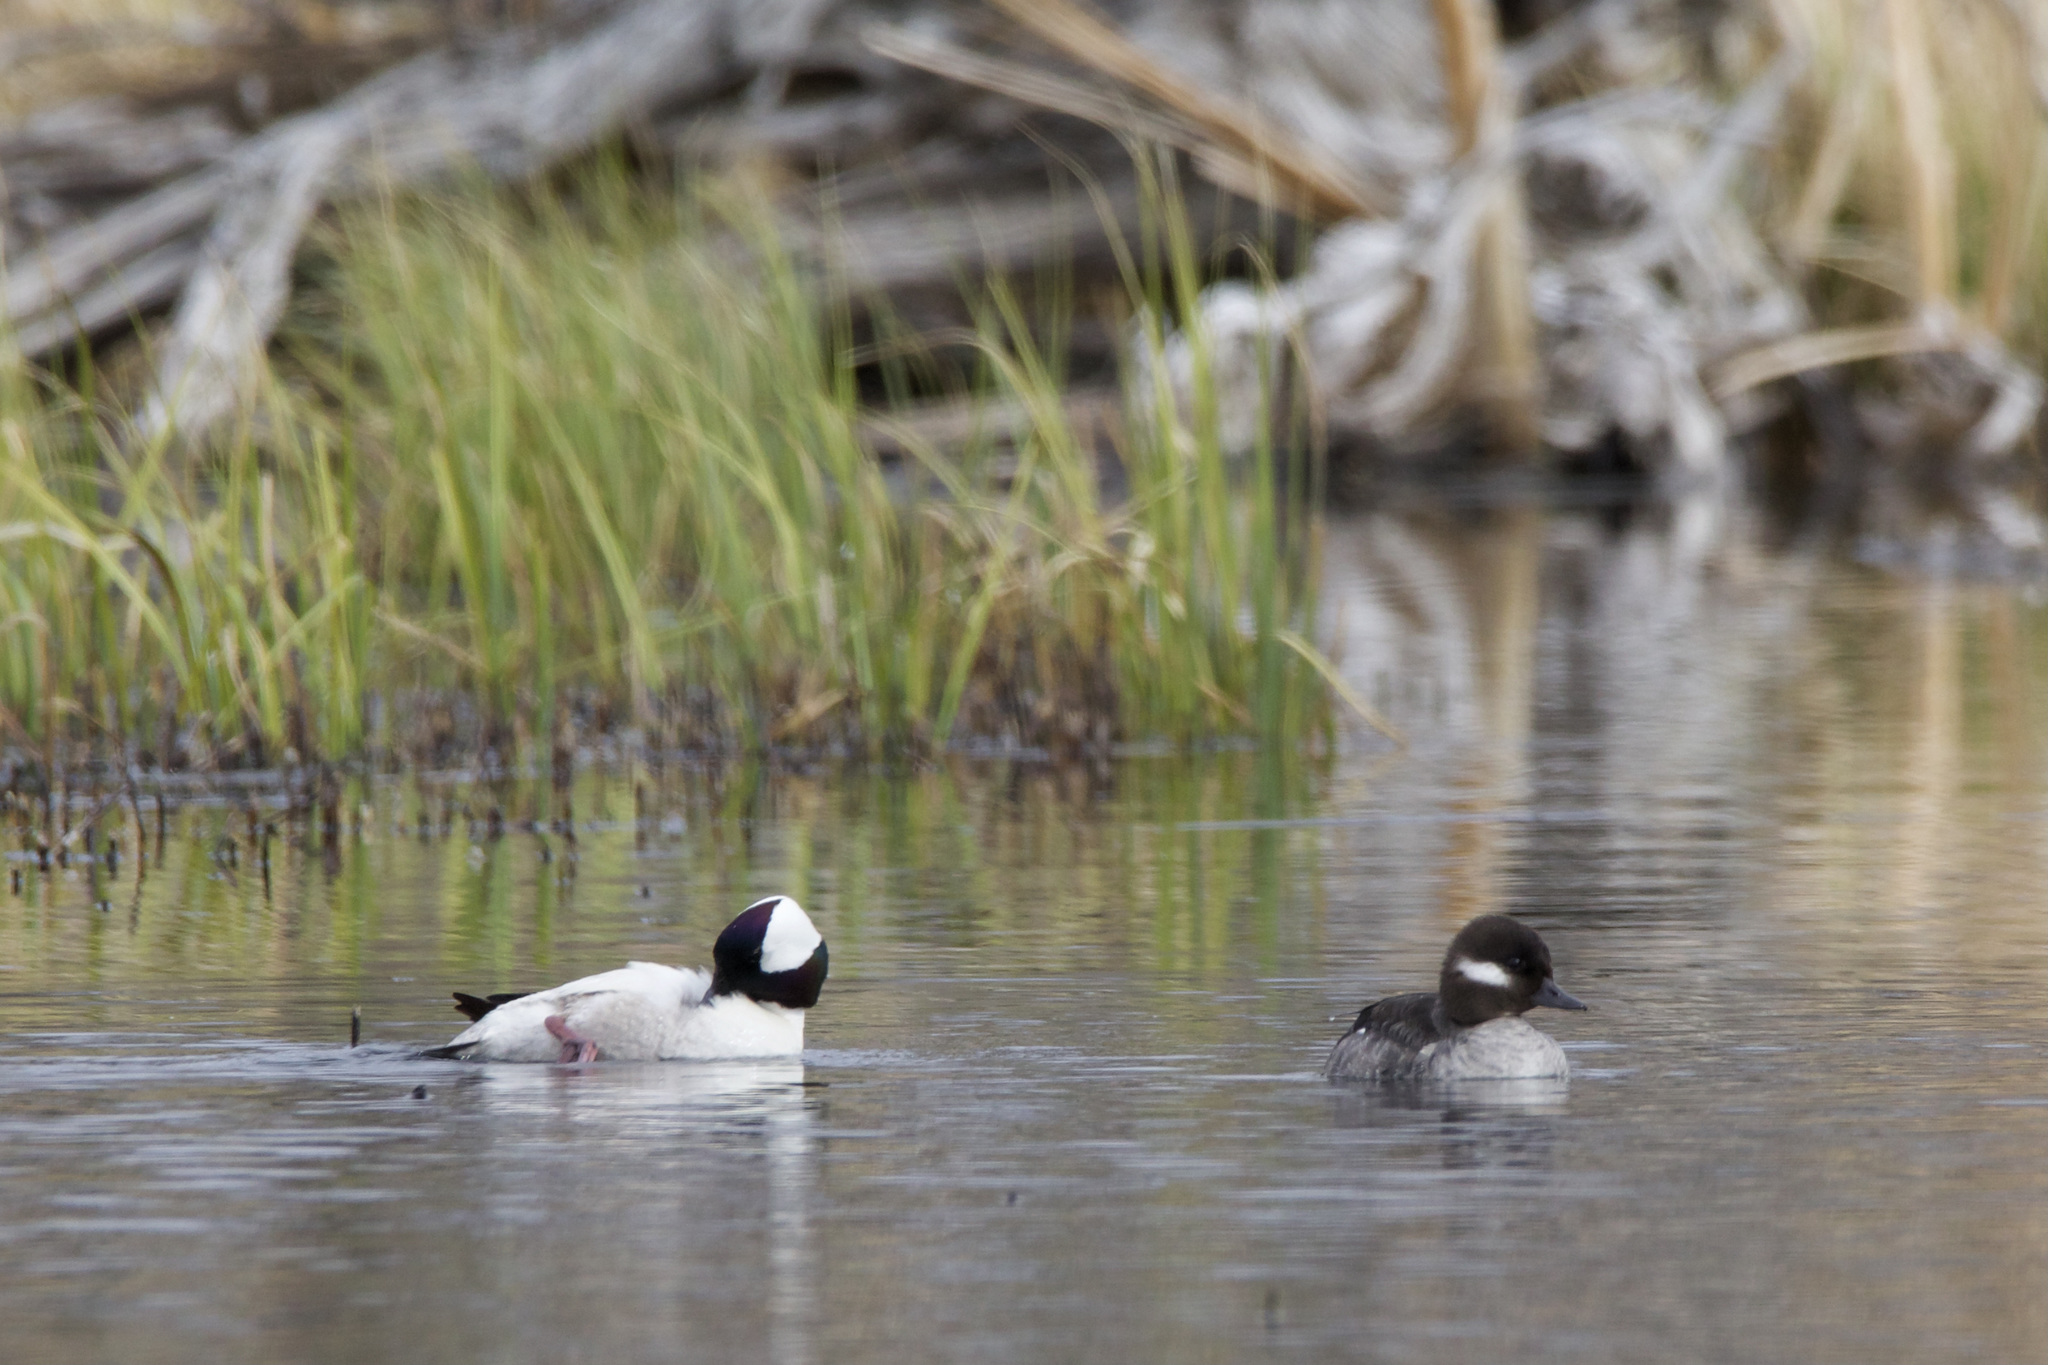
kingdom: Animalia
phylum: Chordata
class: Aves
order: Anseriformes
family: Anatidae
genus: Bucephala
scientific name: Bucephala albeola
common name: Bufflehead
